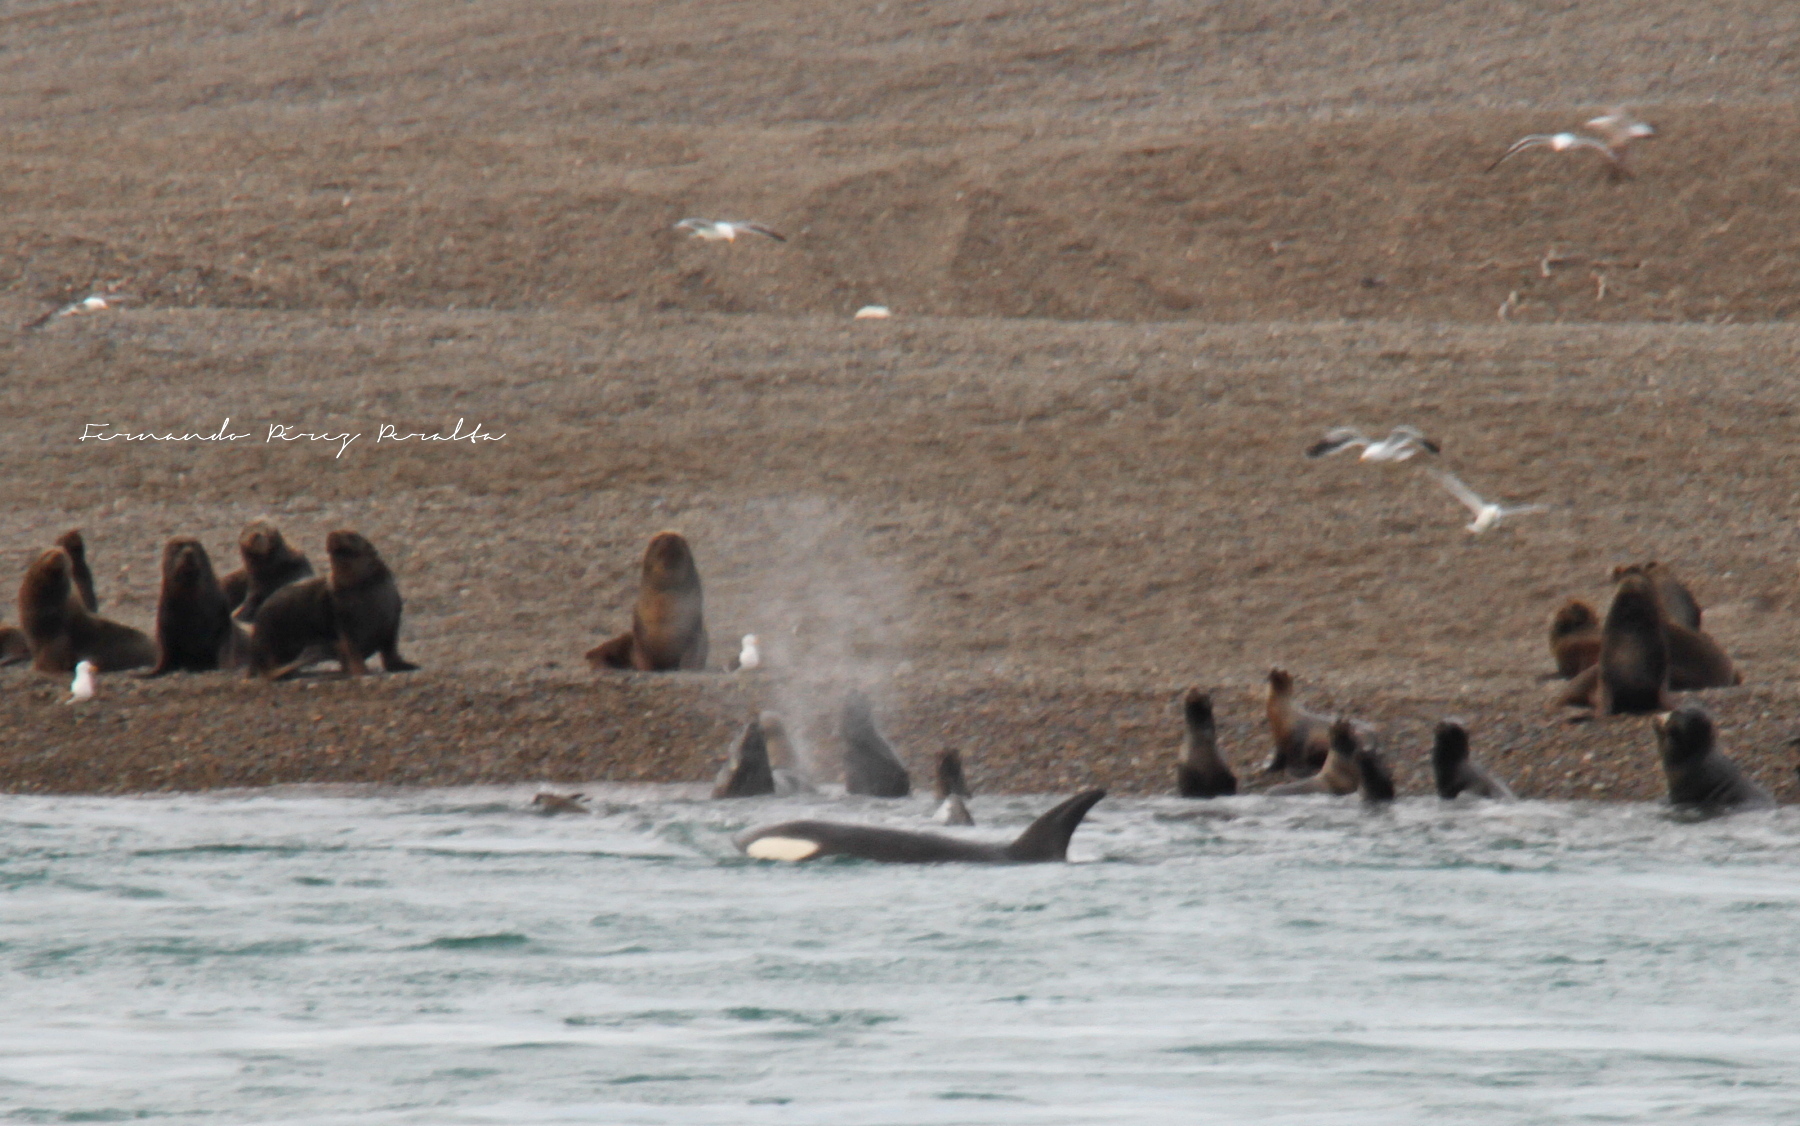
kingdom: Animalia
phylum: Chordata
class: Mammalia
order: Cetacea
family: Delphinidae
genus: Orcinus
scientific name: Orcinus orca
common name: Killer whale
